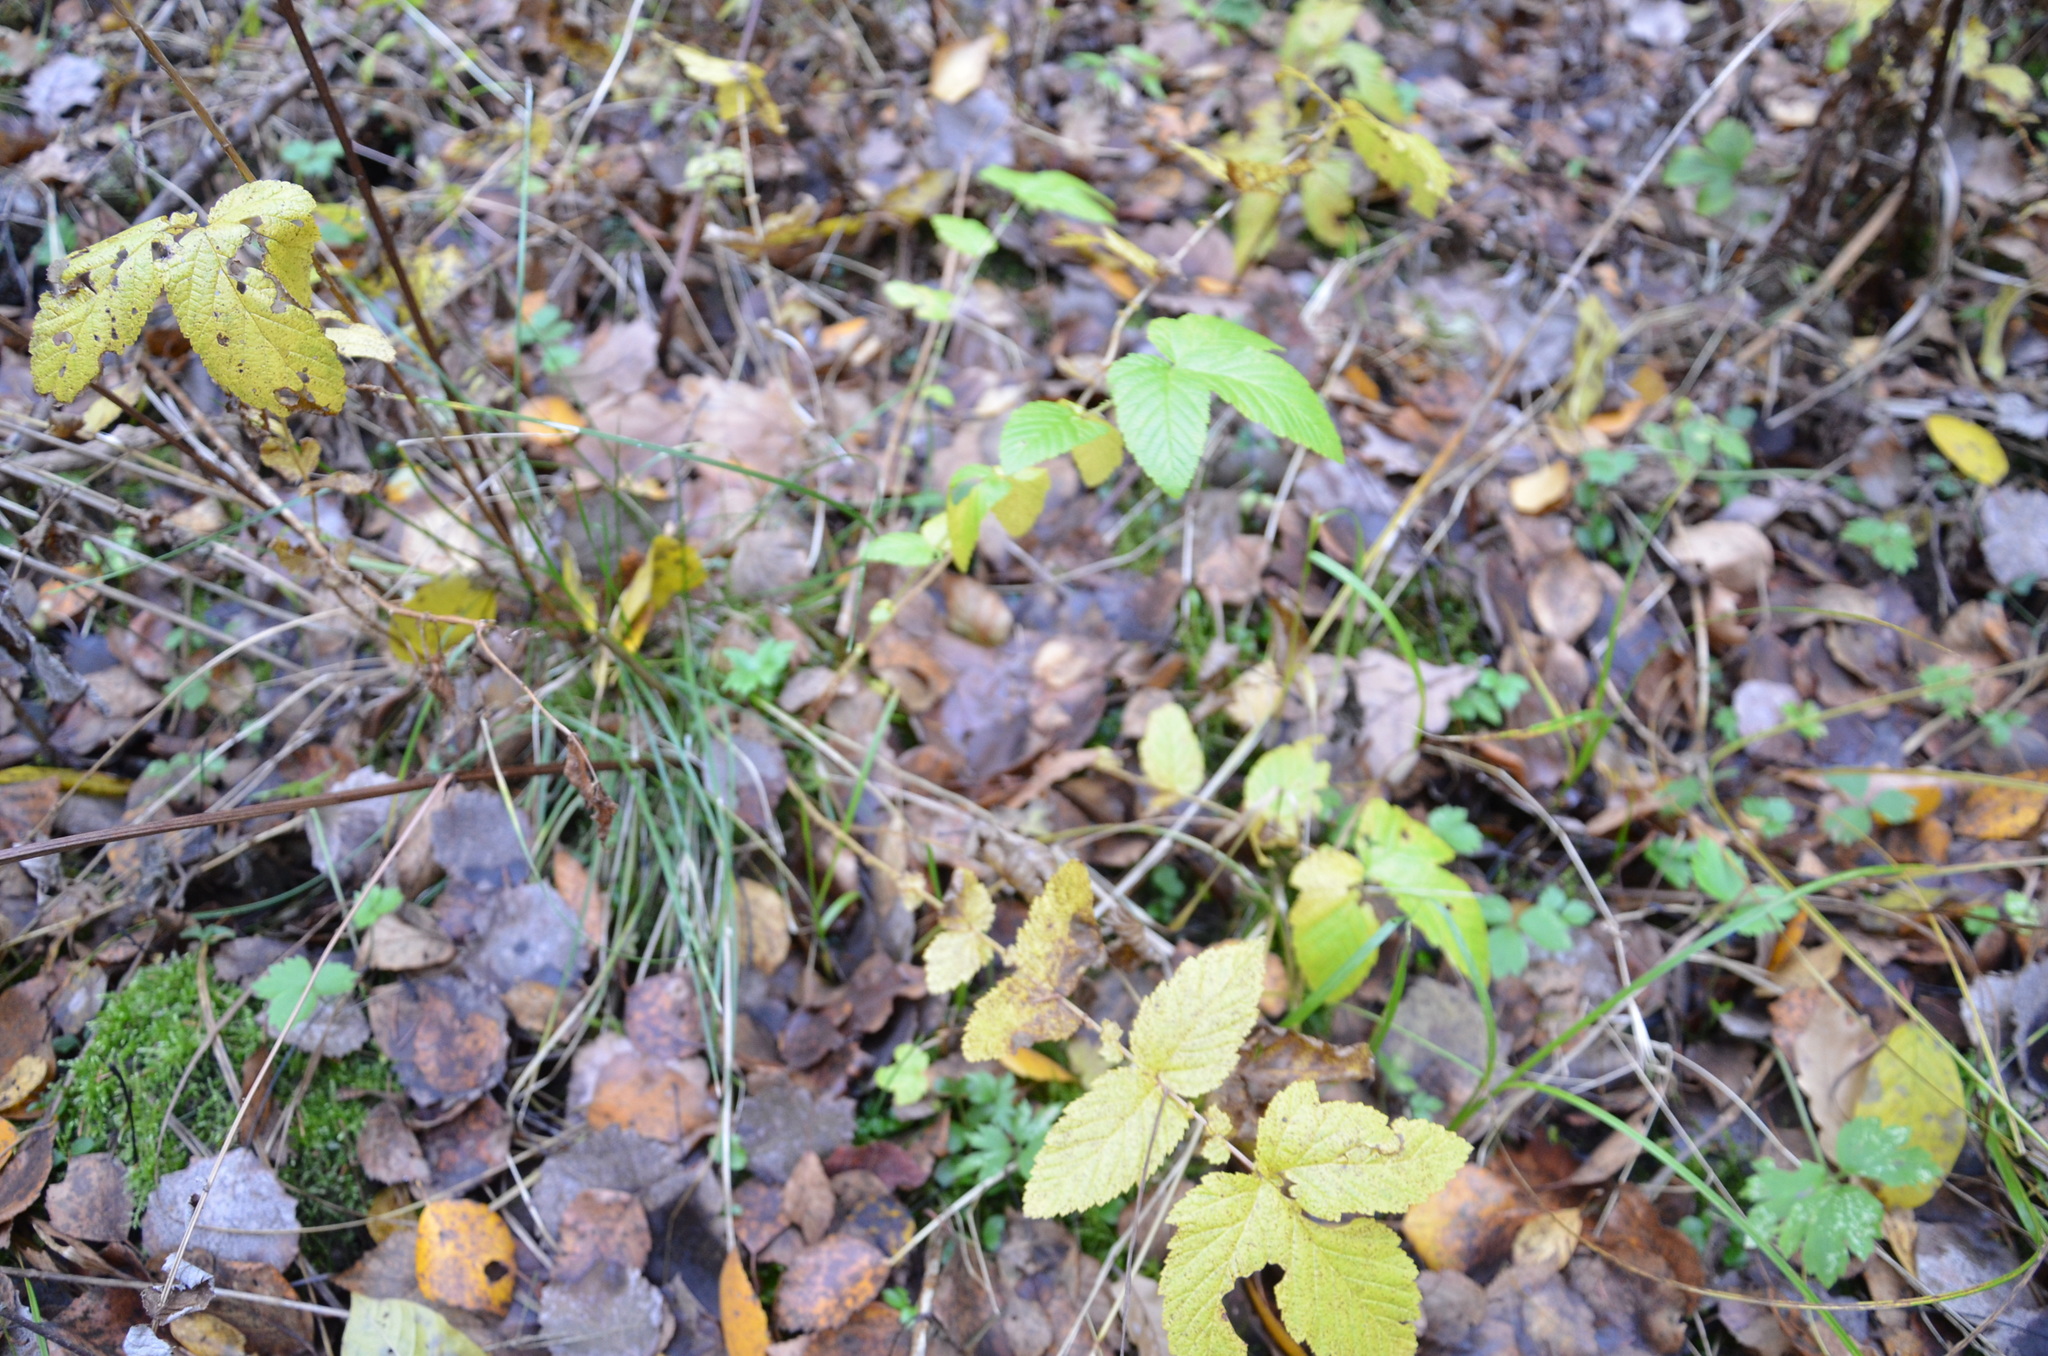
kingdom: Plantae
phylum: Tracheophyta
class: Magnoliopsida
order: Rosales
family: Rosaceae
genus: Filipendula
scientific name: Filipendula ulmaria
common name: Meadowsweet
